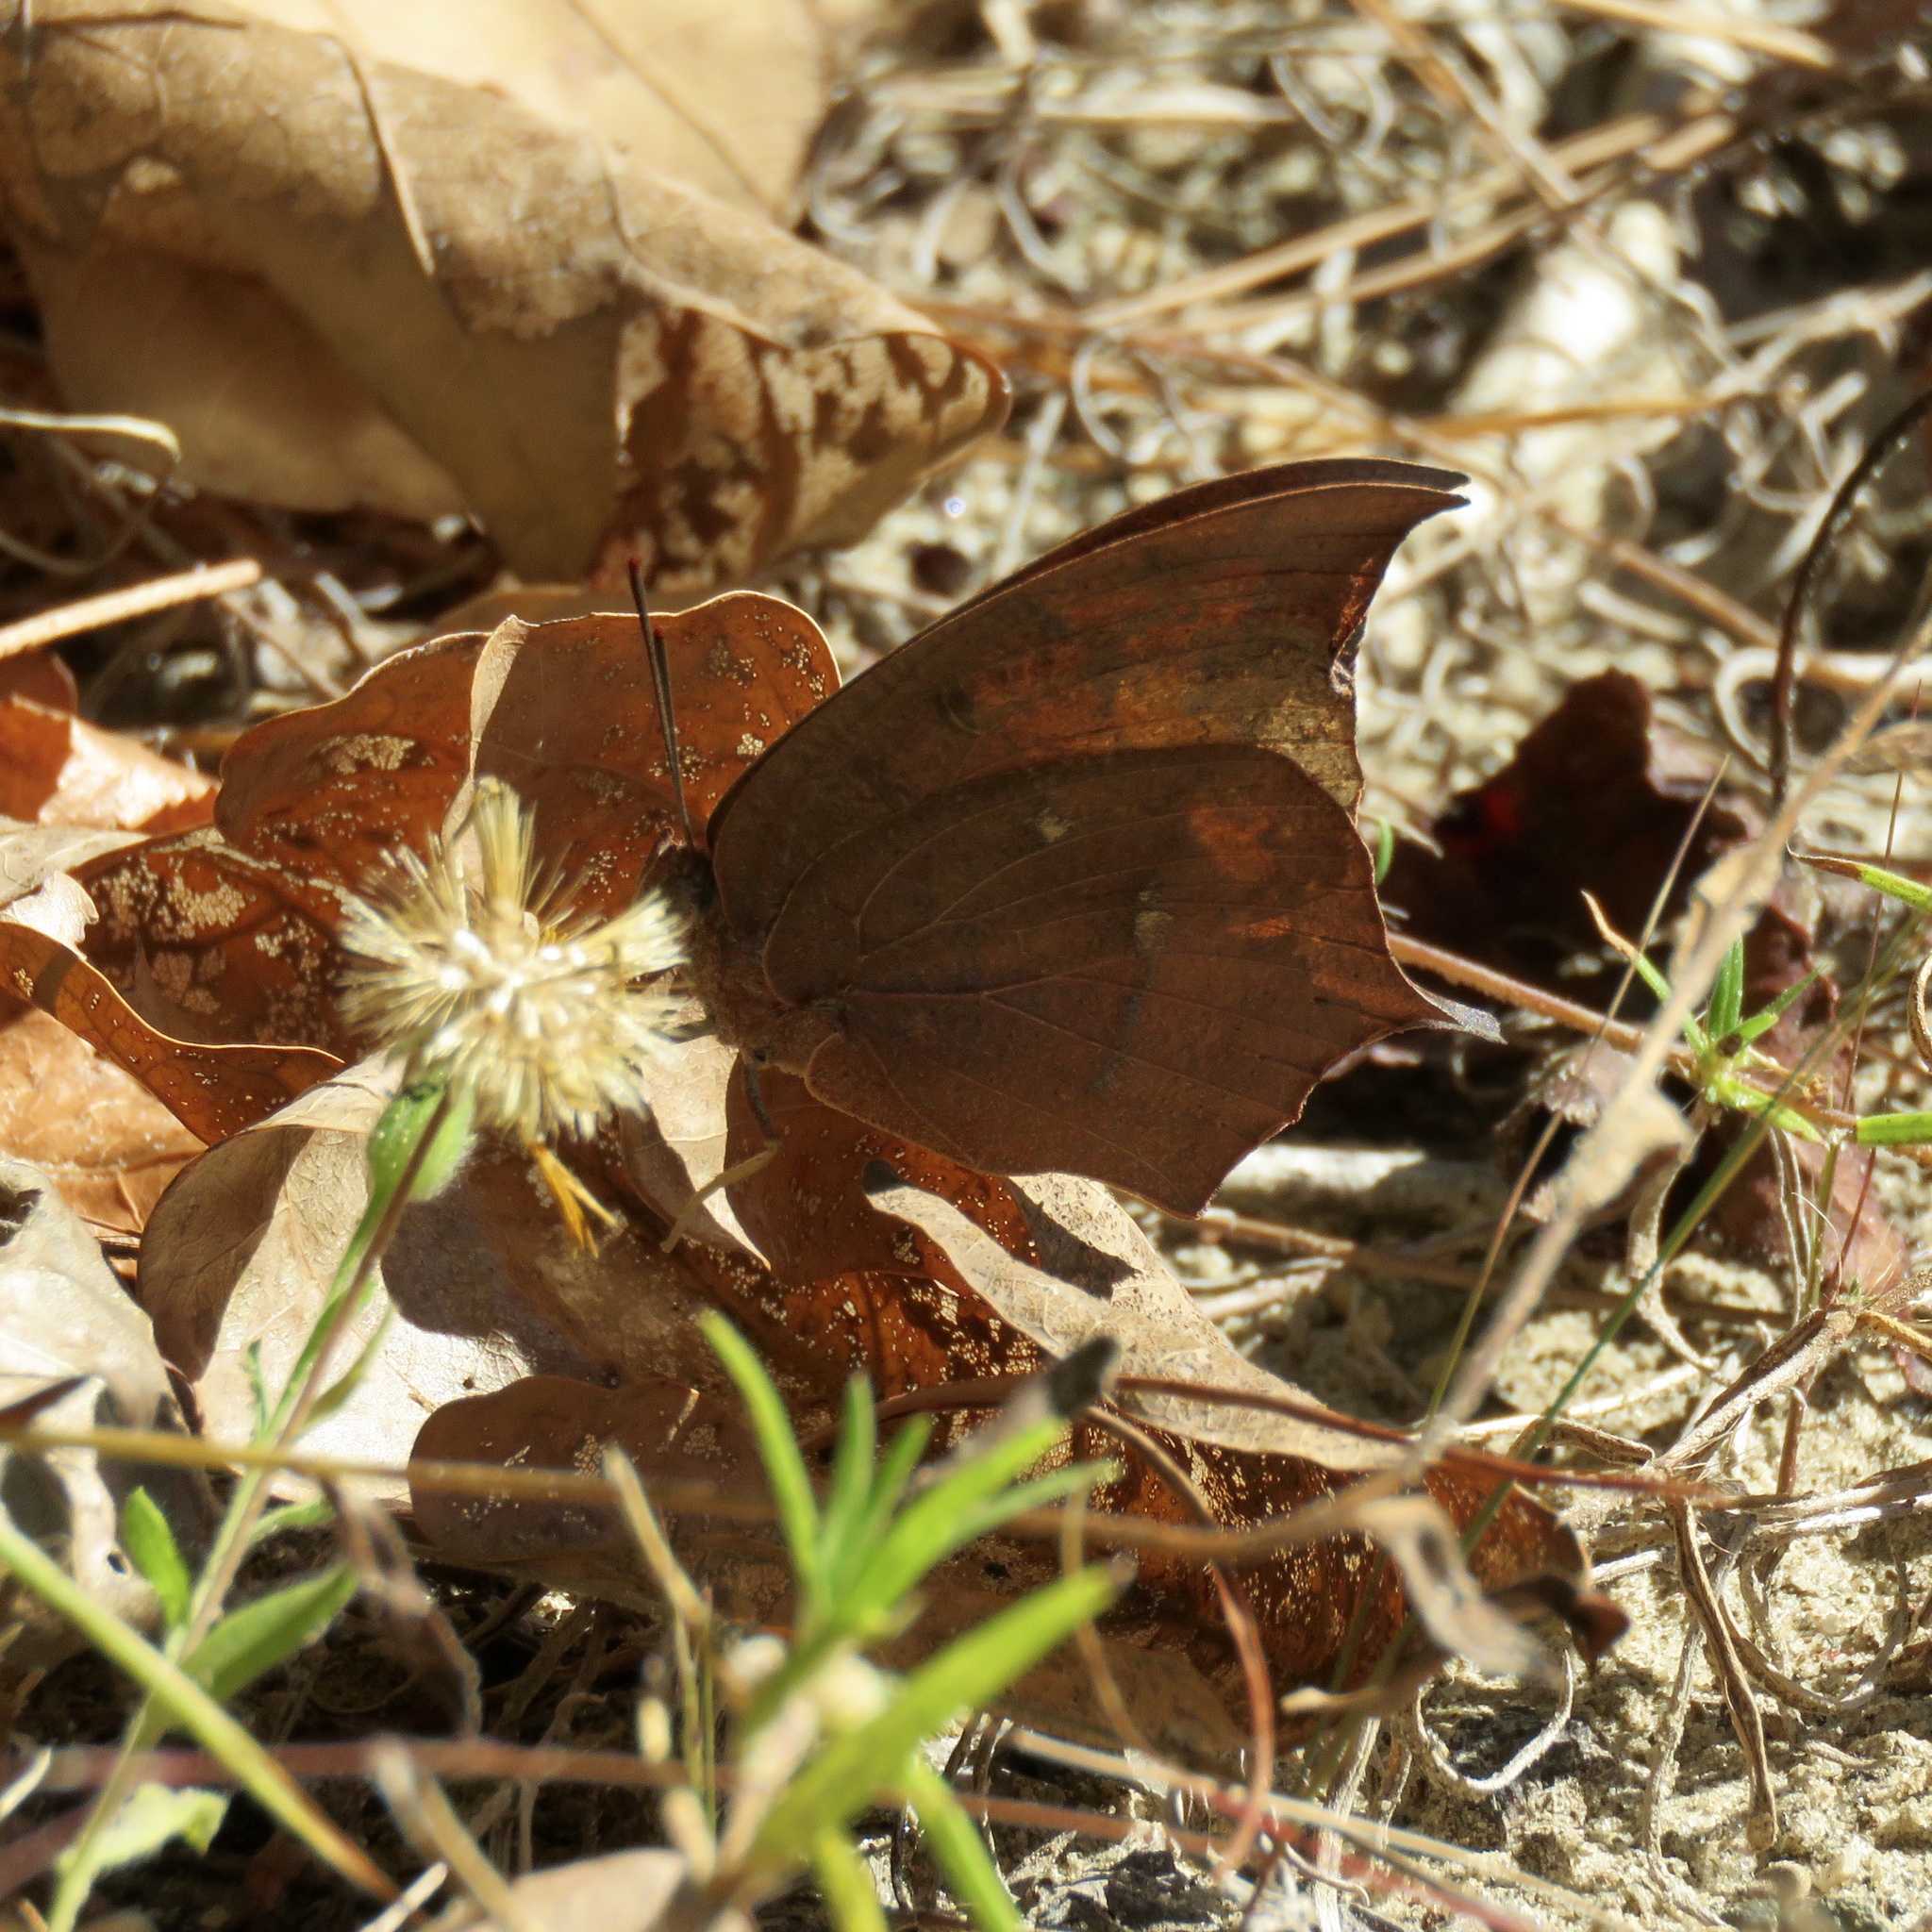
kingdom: Animalia
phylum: Arthropoda
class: Insecta
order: Lepidoptera
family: Nymphalidae
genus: Anaea
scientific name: Anaea andria
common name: Goatweed leafwing
